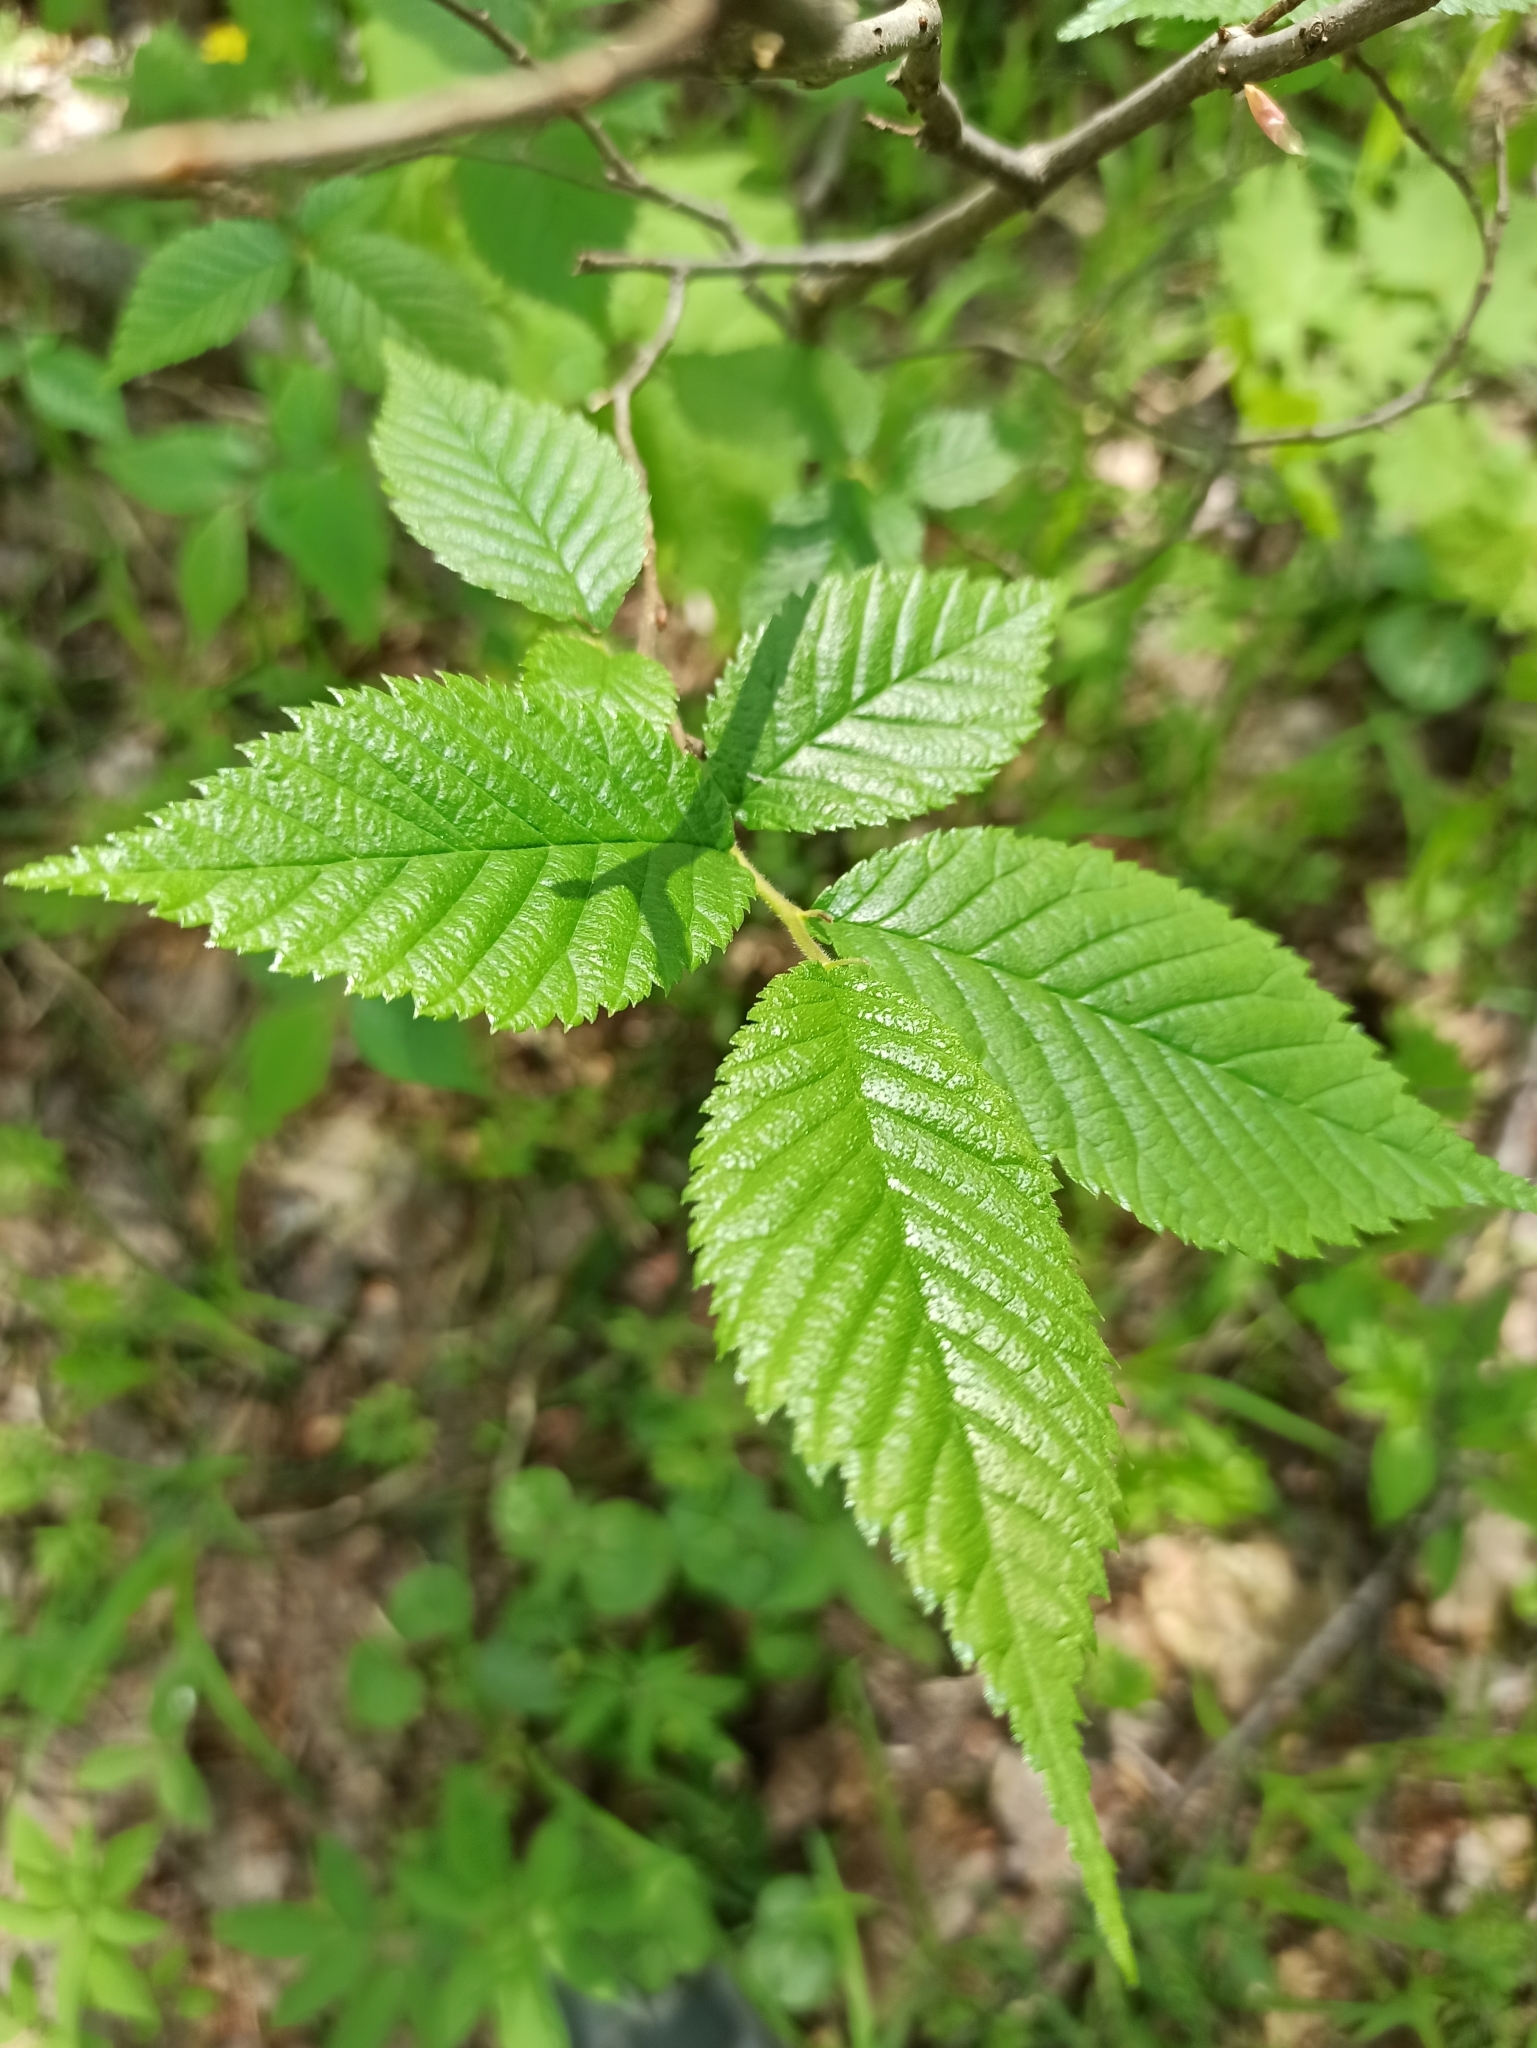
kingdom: Plantae
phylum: Tracheophyta
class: Magnoliopsida
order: Rosales
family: Ulmaceae
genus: Ulmus
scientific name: Ulmus glabra
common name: Wych elm
